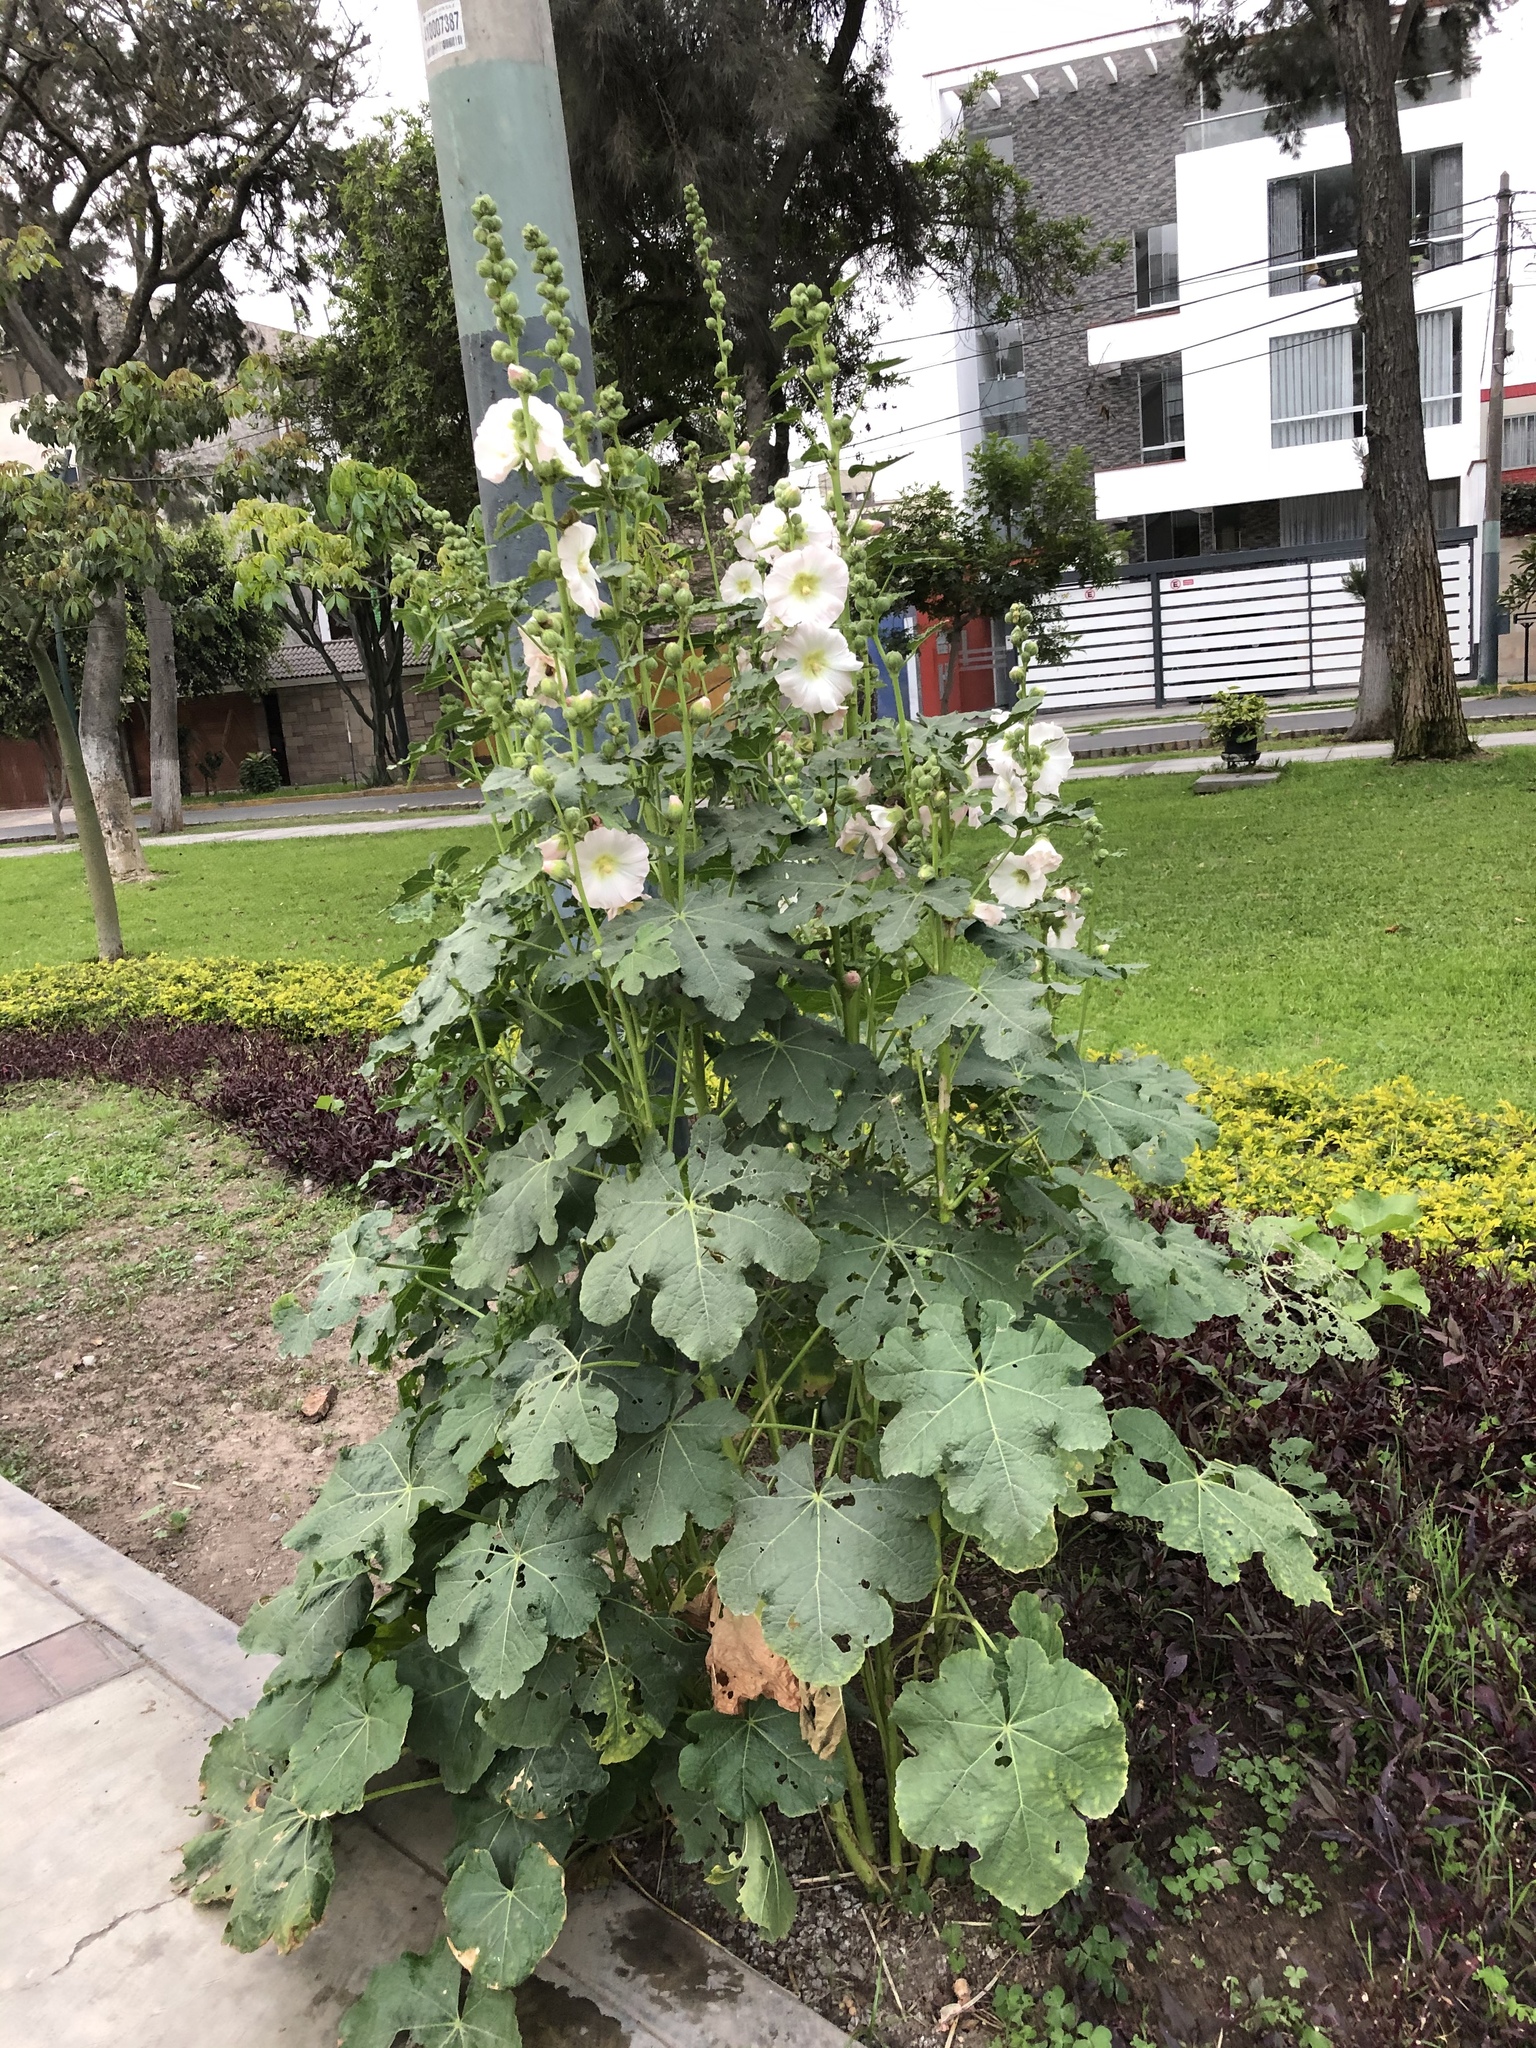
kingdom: Plantae
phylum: Tracheophyta
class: Magnoliopsida
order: Malvales
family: Malvaceae
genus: Alcea
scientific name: Alcea rosea
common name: Hollyhock
